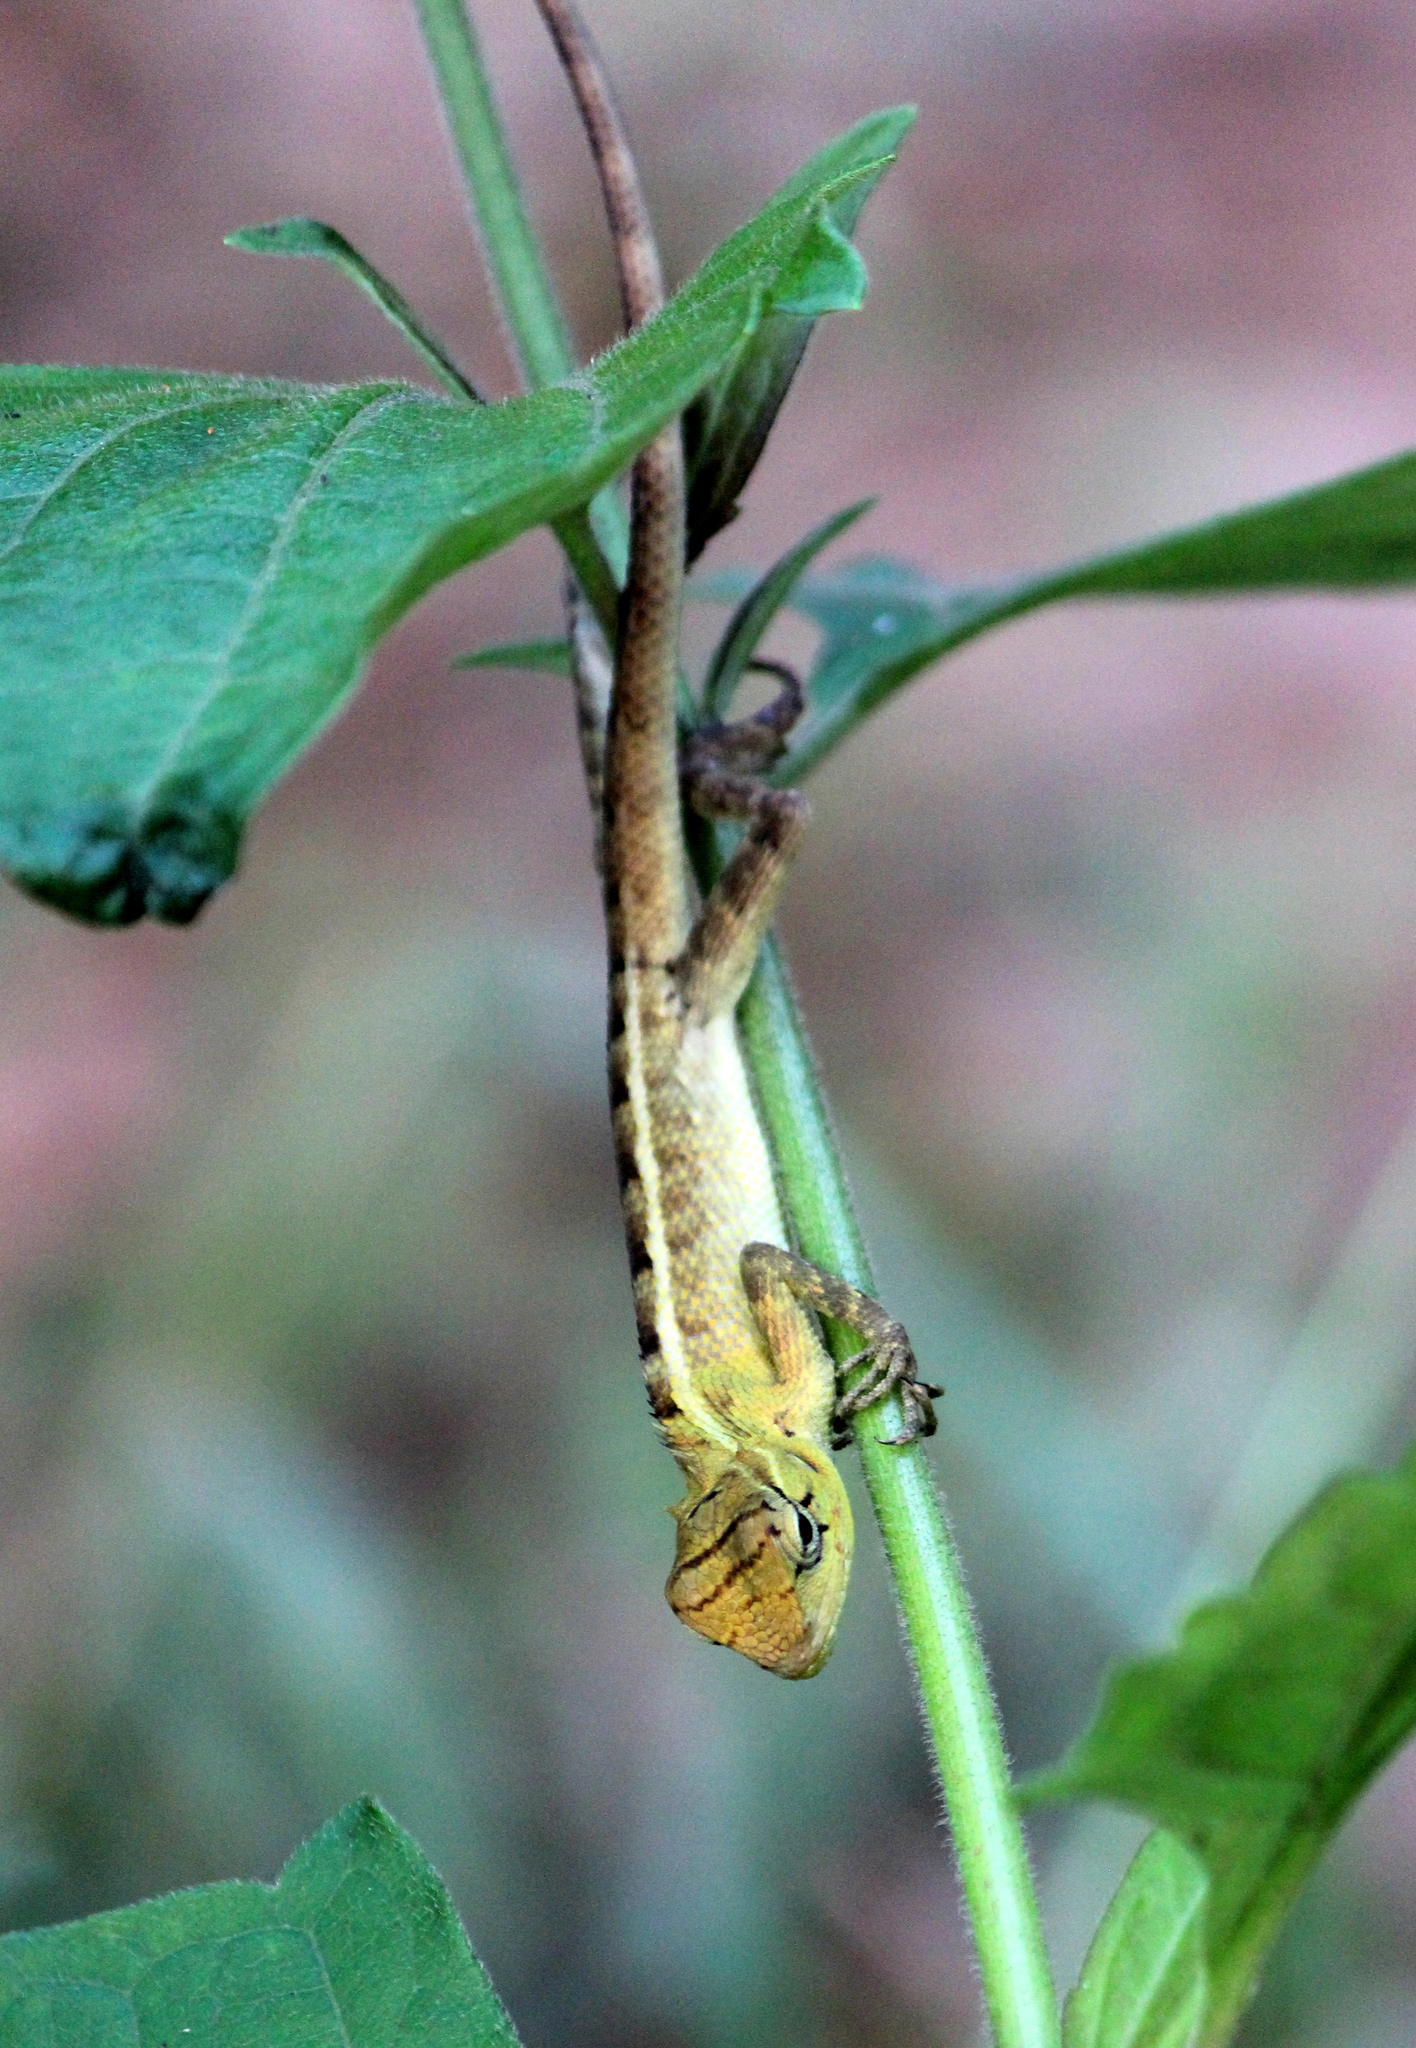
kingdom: Animalia
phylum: Chordata
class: Squamata
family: Agamidae
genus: Calotes
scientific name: Calotes versicolor
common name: Oriental garden lizard
